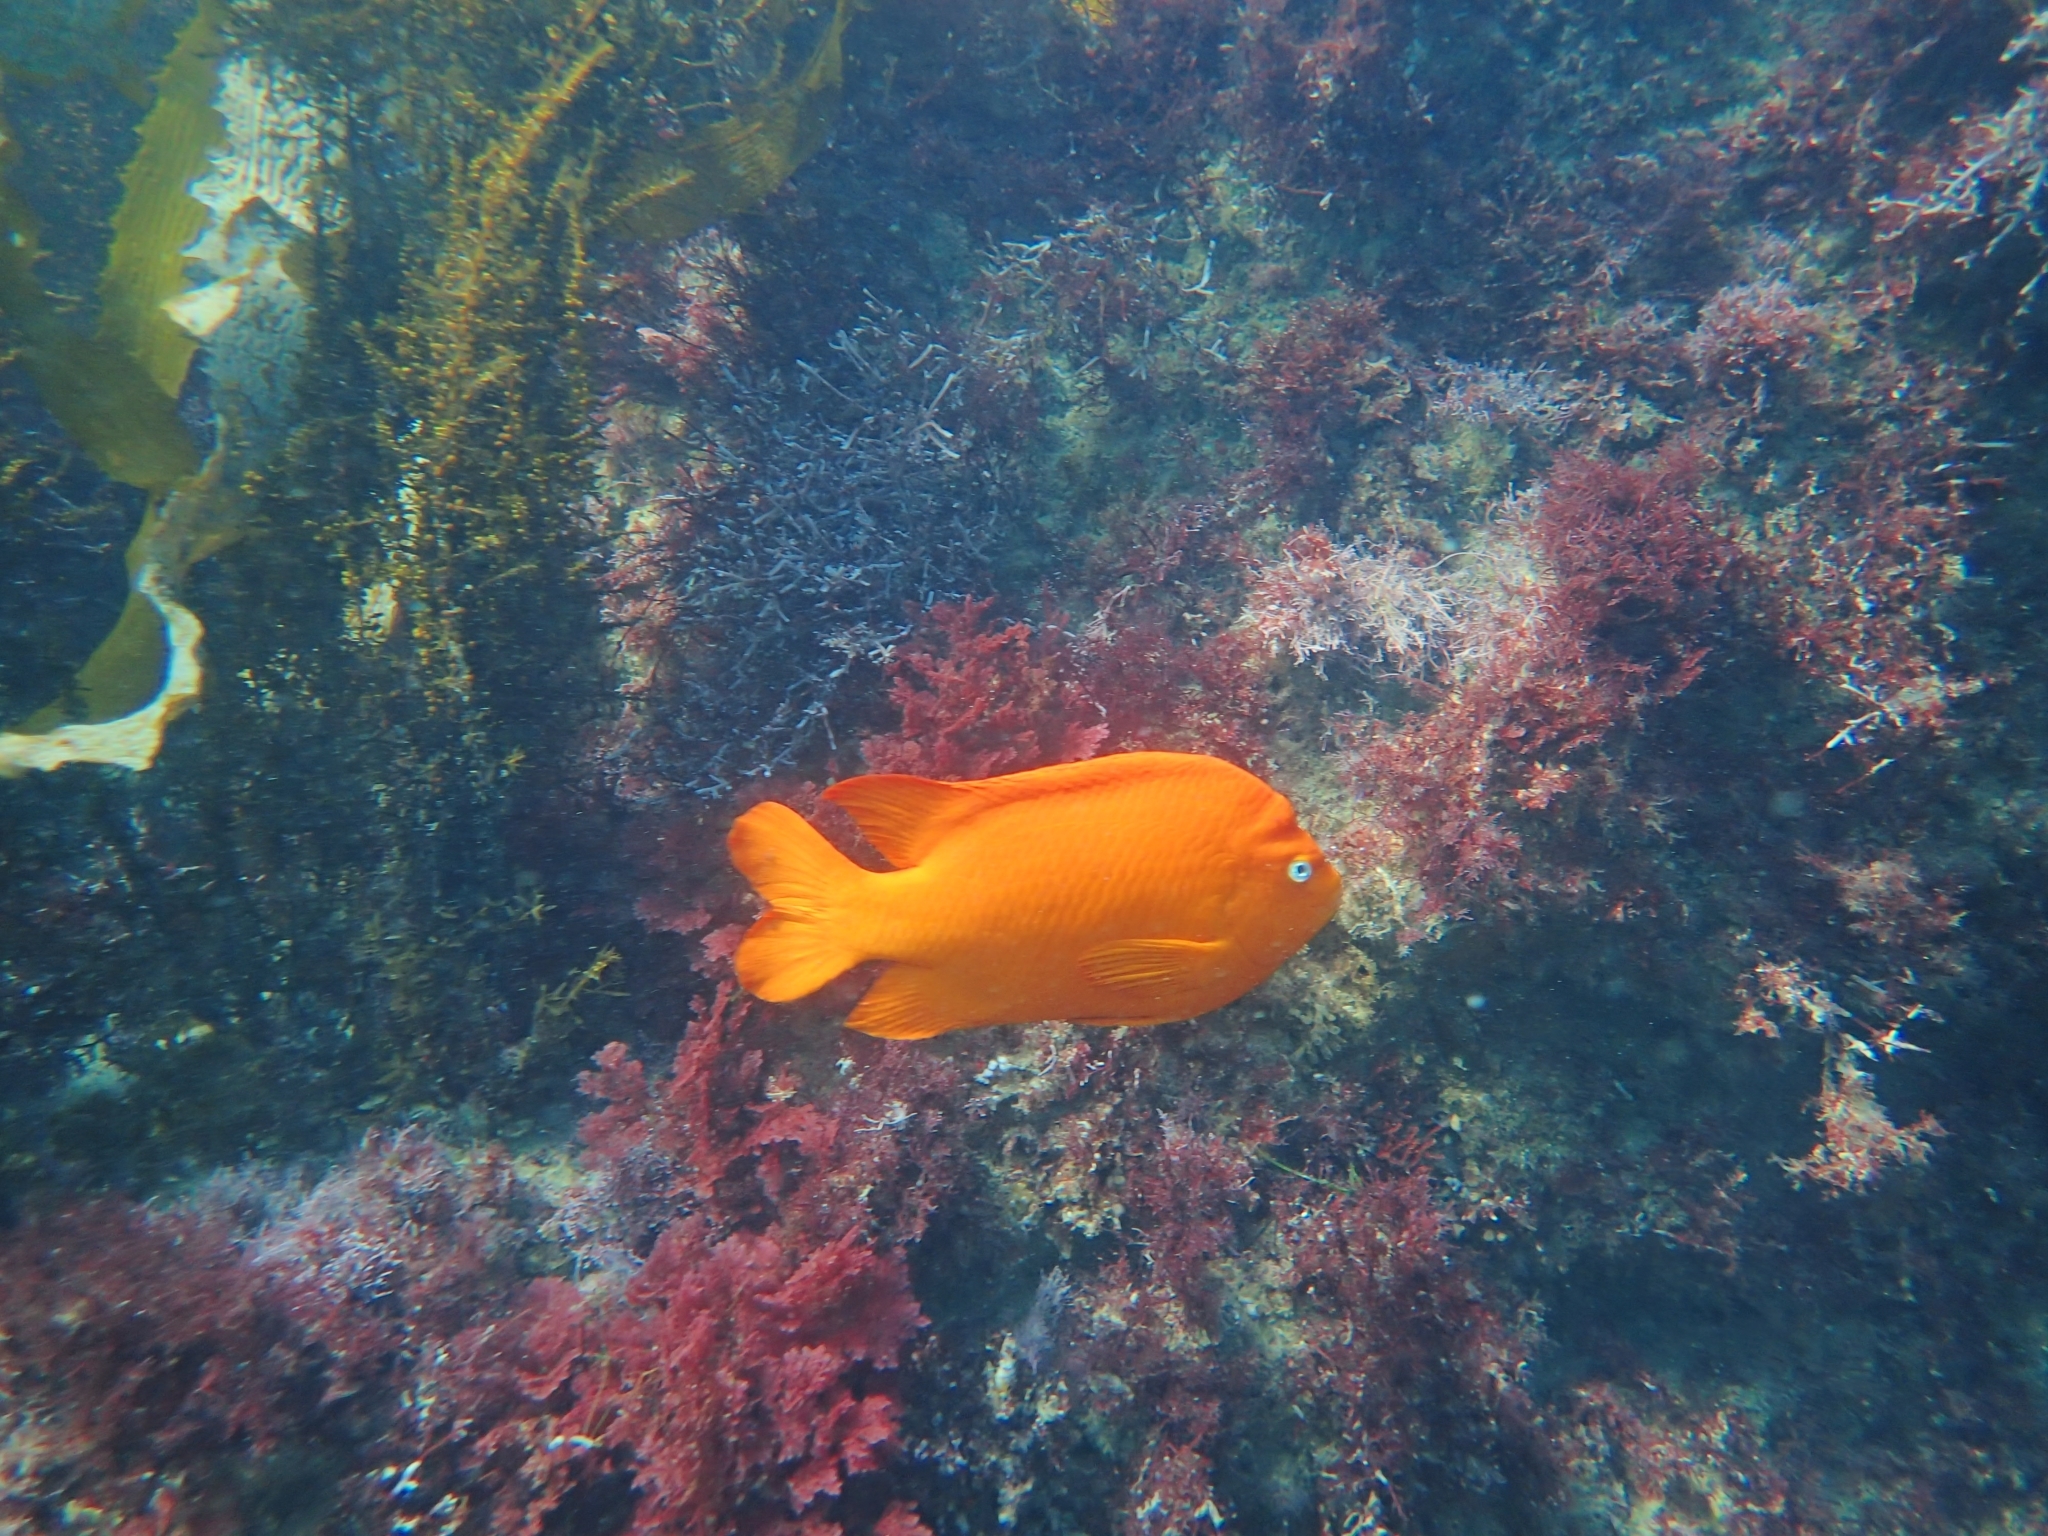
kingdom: Animalia
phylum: Chordata
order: Perciformes
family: Pomacentridae
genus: Hypsypops
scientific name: Hypsypops rubicundus
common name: Garibaldi
